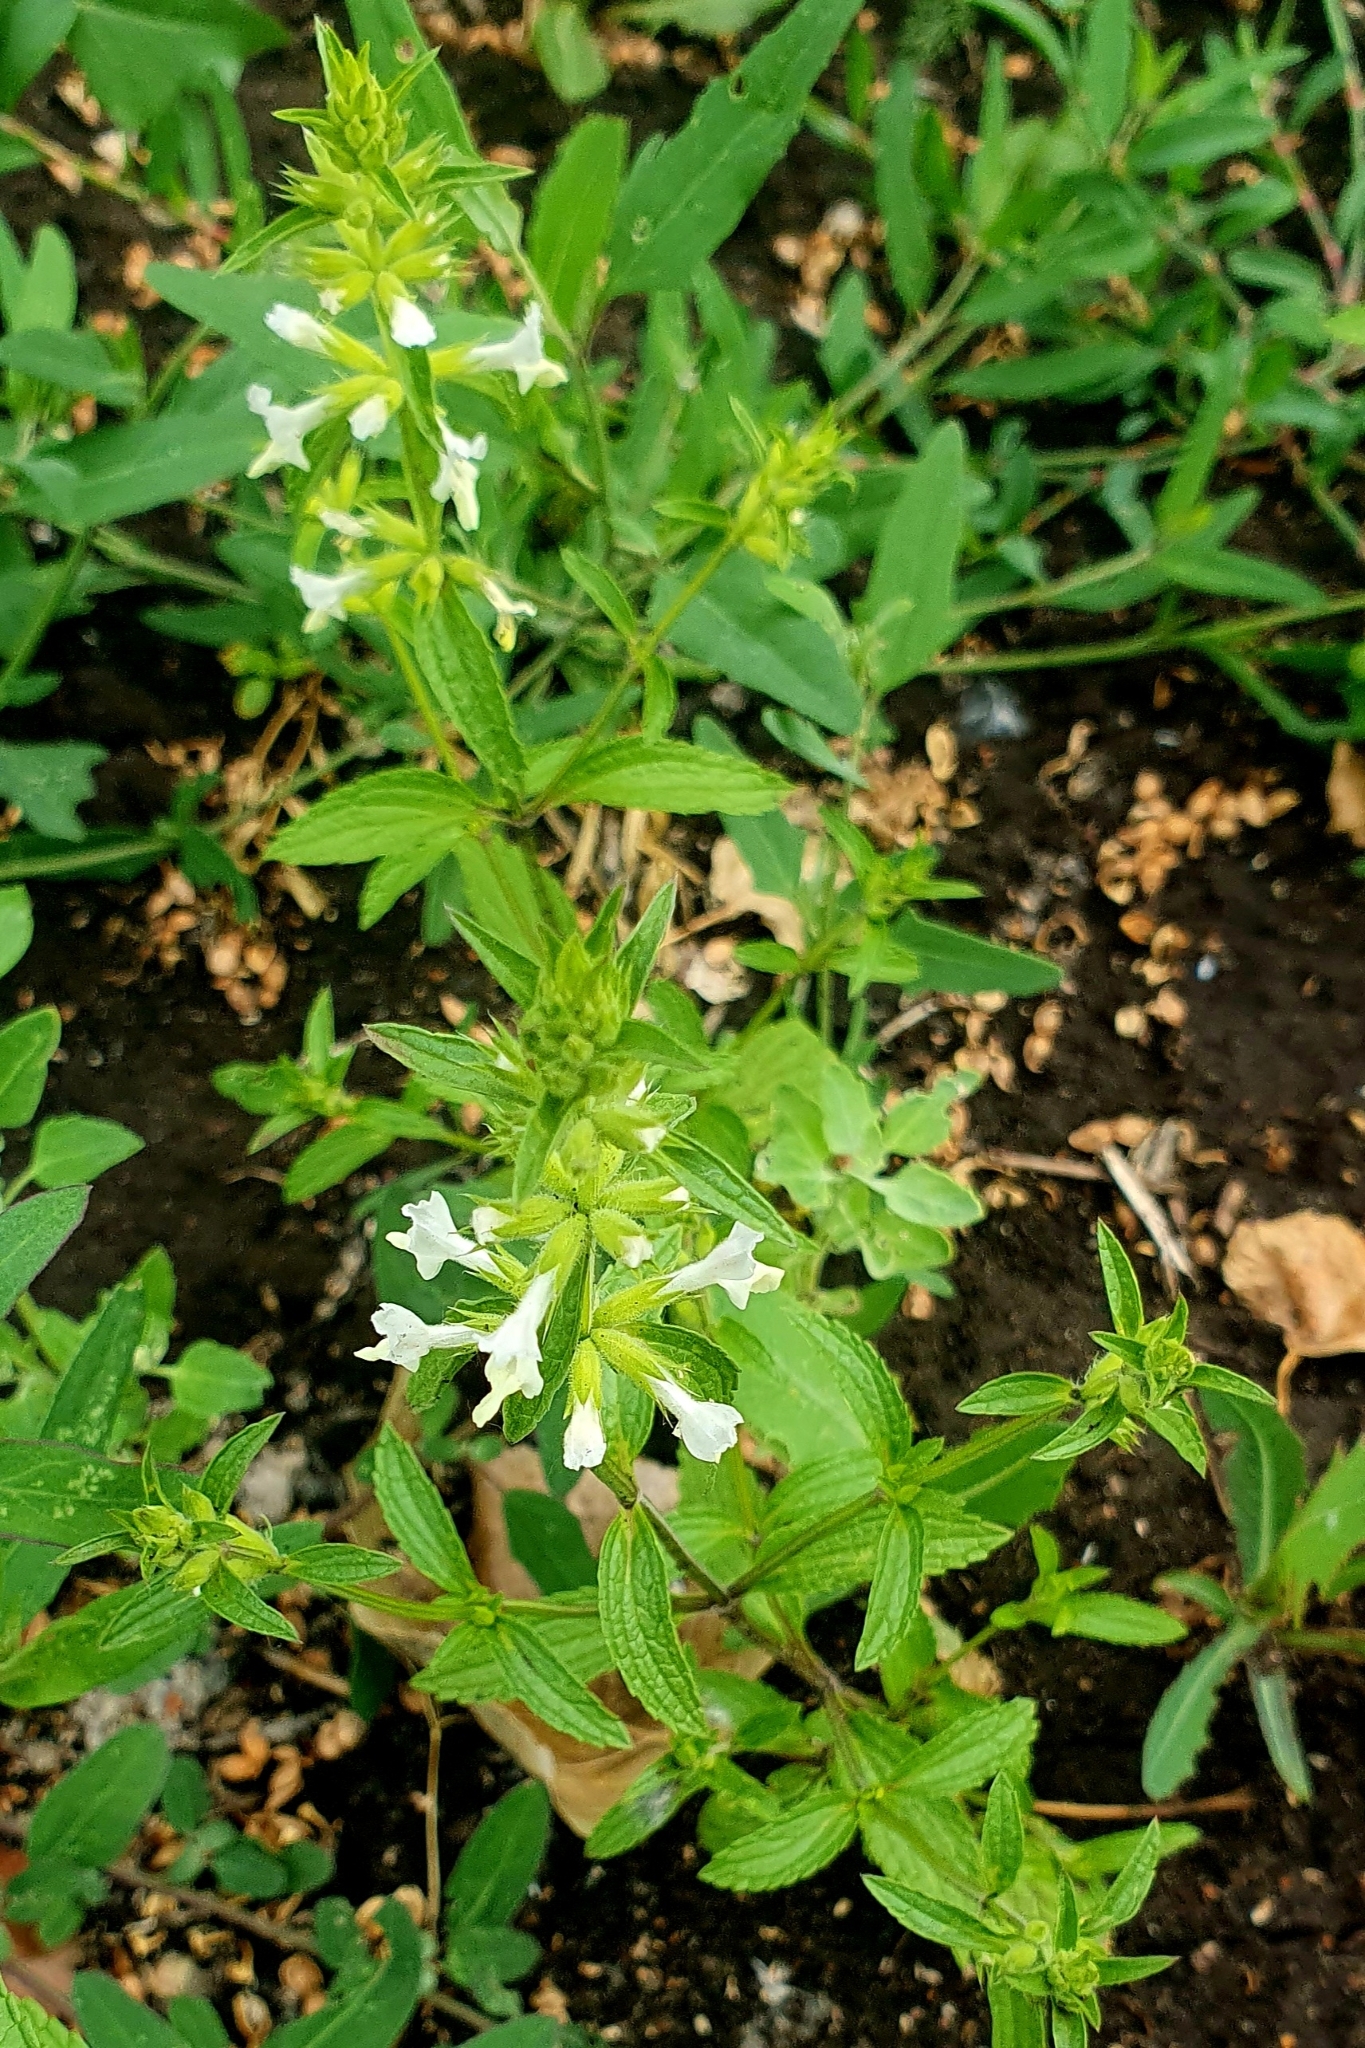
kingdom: Plantae
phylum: Tracheophyta
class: Magnoliopsida
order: Lamiales
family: Lamiaceae
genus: Stachys
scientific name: Stachys annua
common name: Annual yellow-woundwort
